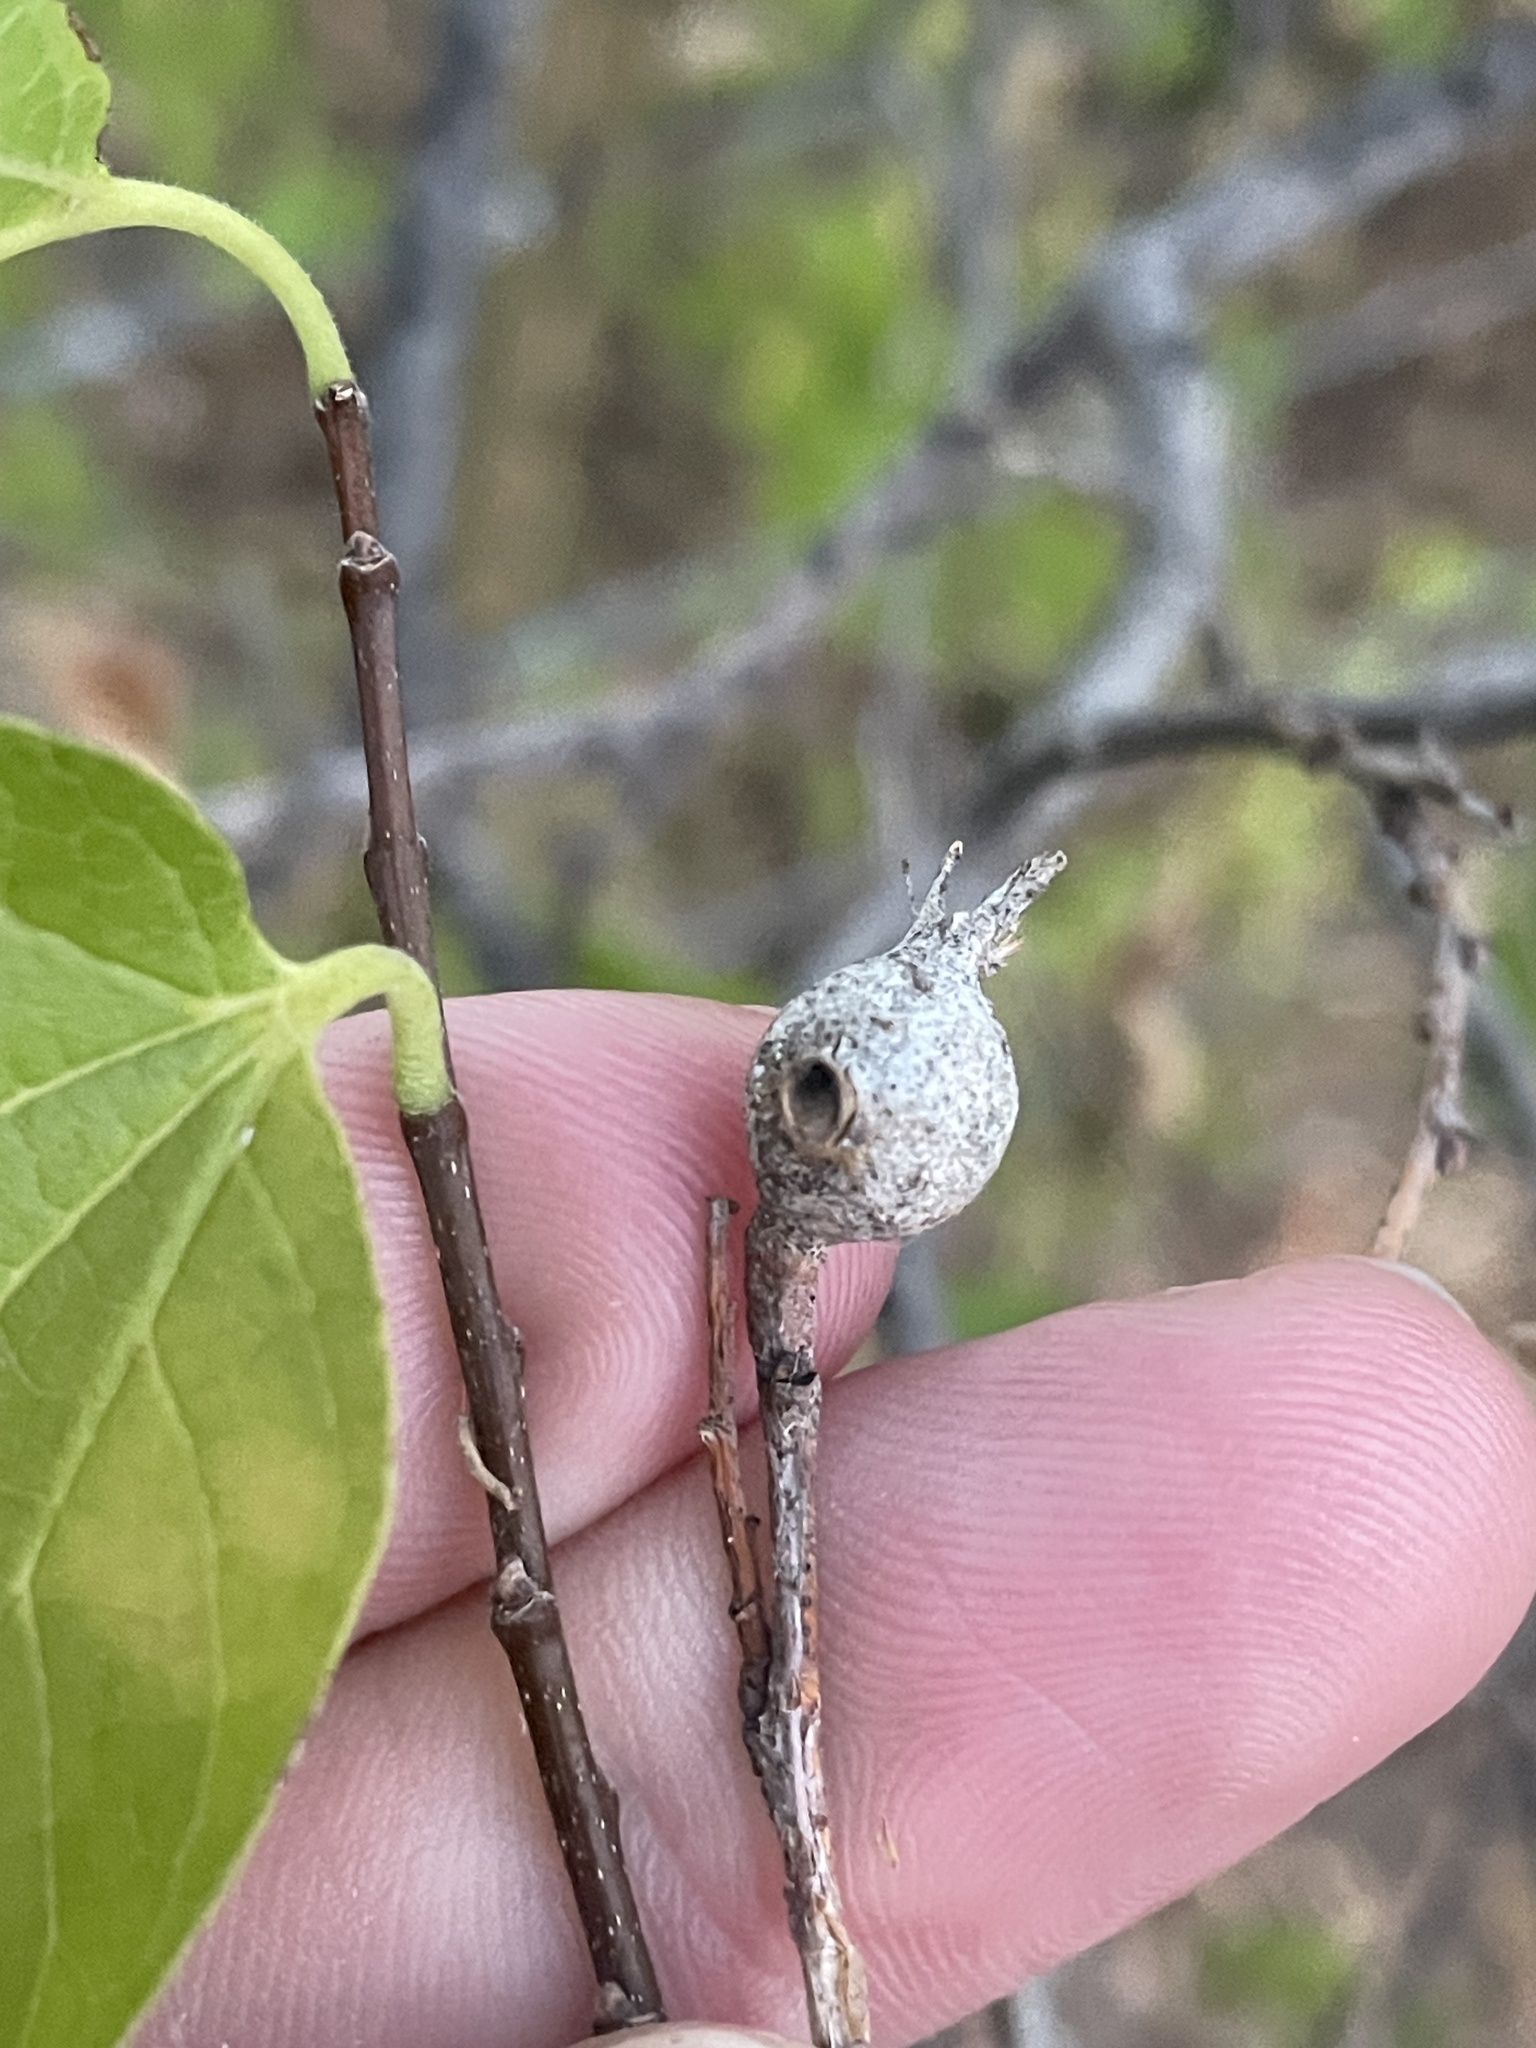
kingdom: Animalia
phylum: Arthropoda
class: Insecta
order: Hemiptera
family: Aphalaridae
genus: Pachypsylla
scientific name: Pachypsylla venusta
